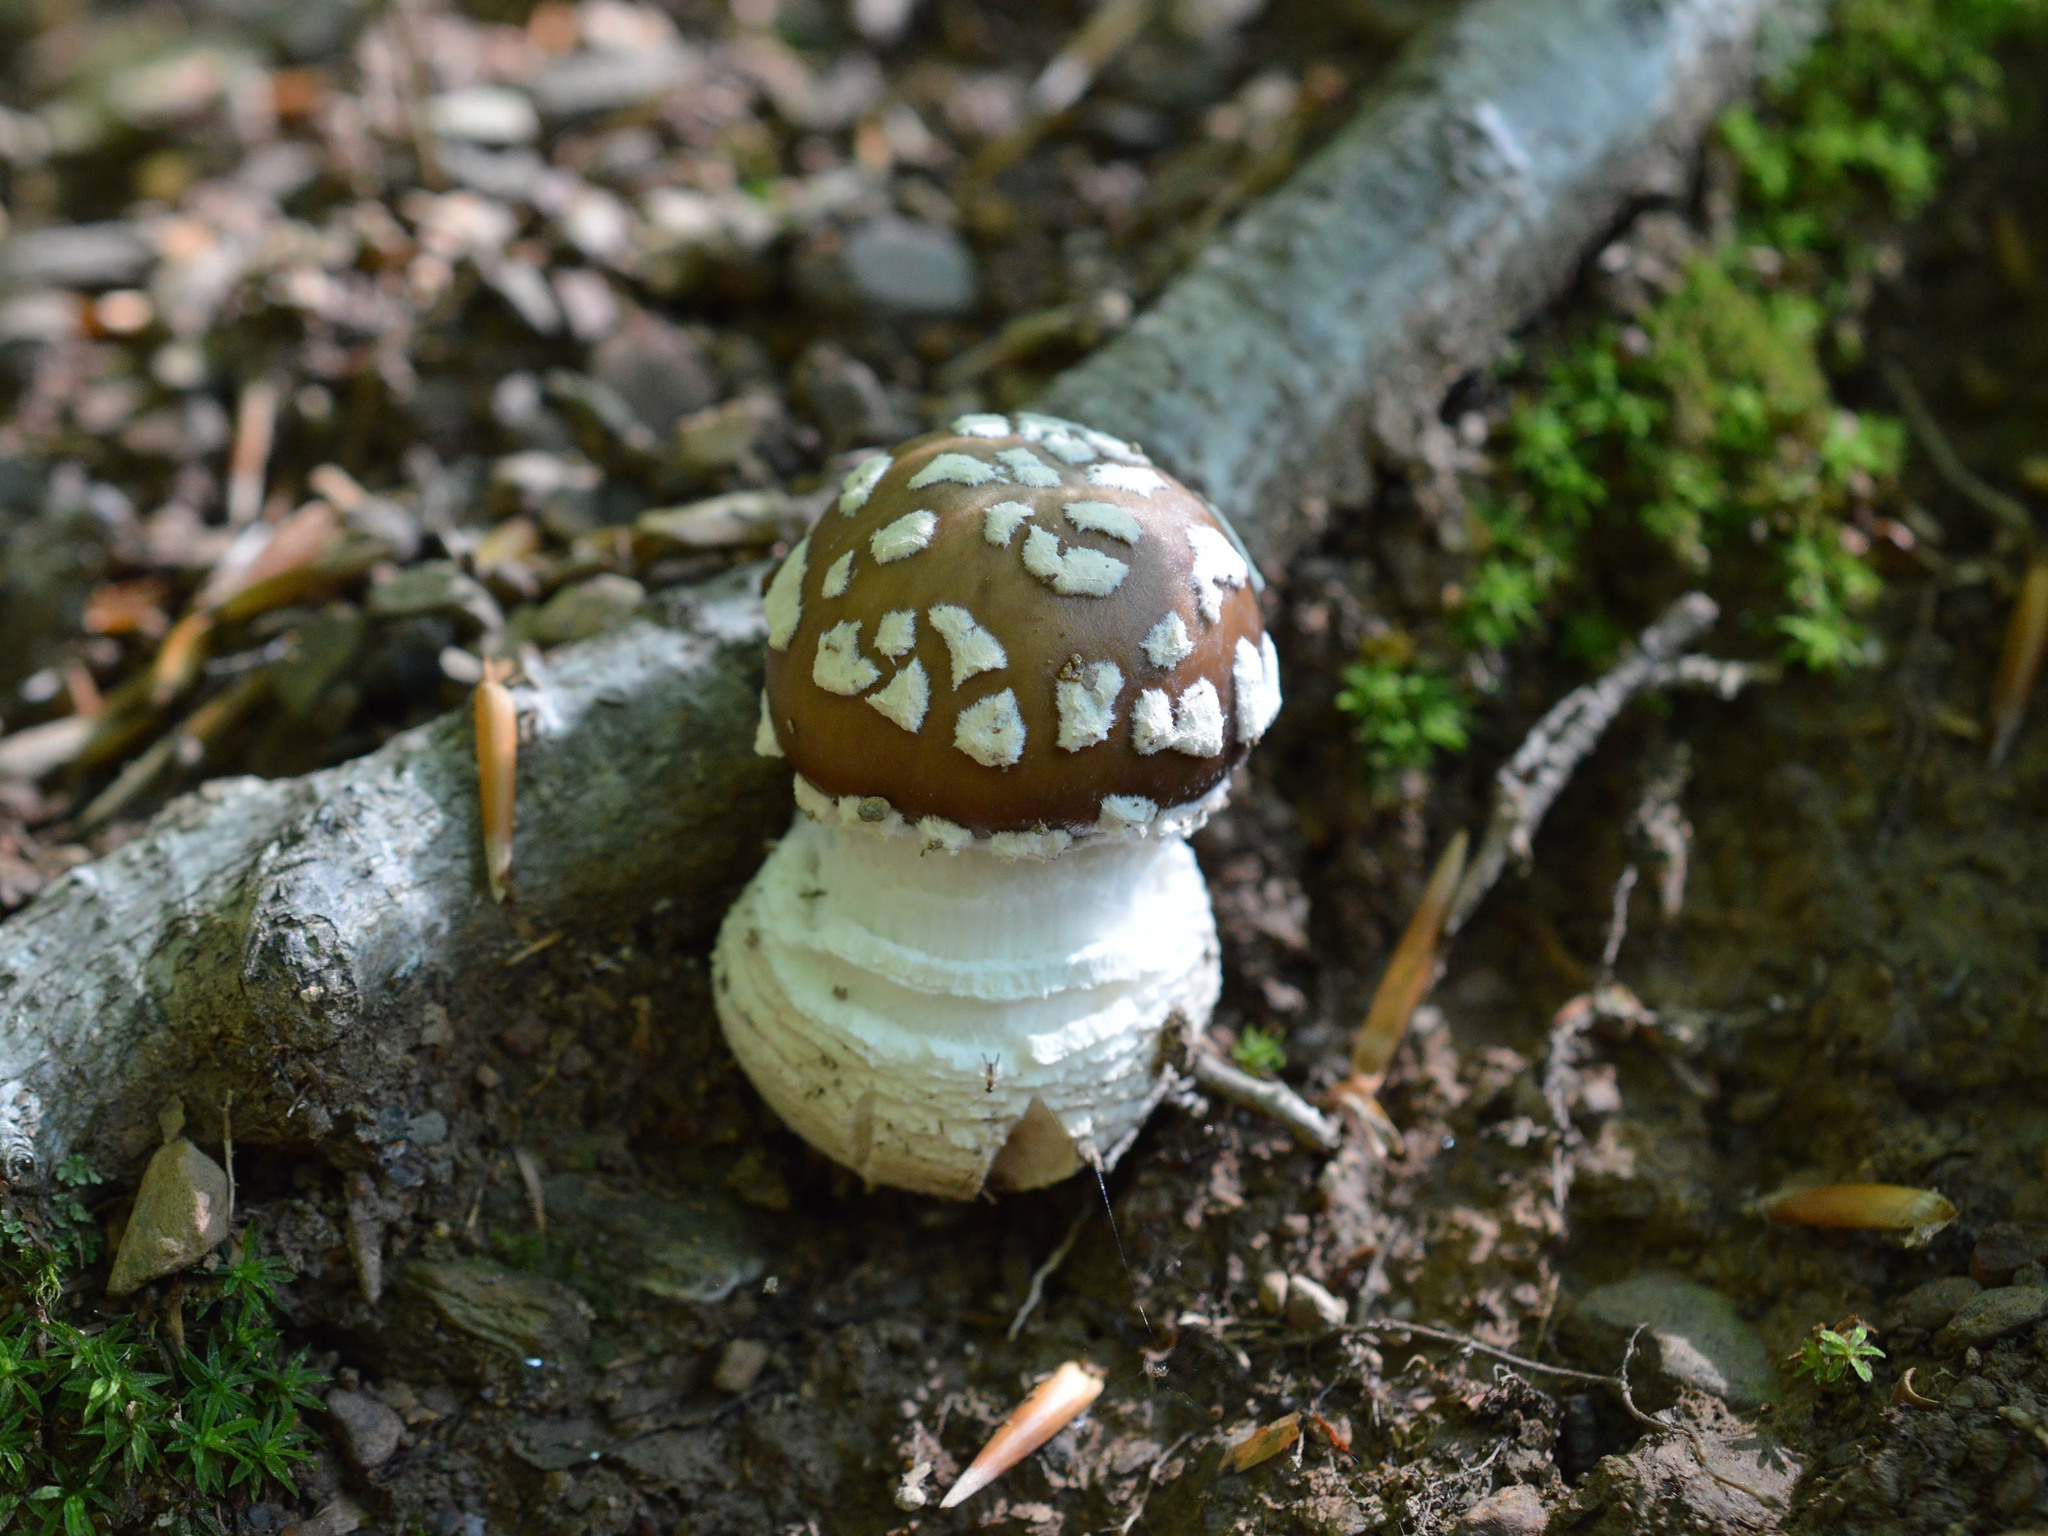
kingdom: Fungi
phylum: Basidiomycota
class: Agaricomycetes
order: Agaricales
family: Amanitaceae
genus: Amanita
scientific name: Amanita pantherina
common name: Panthercap
